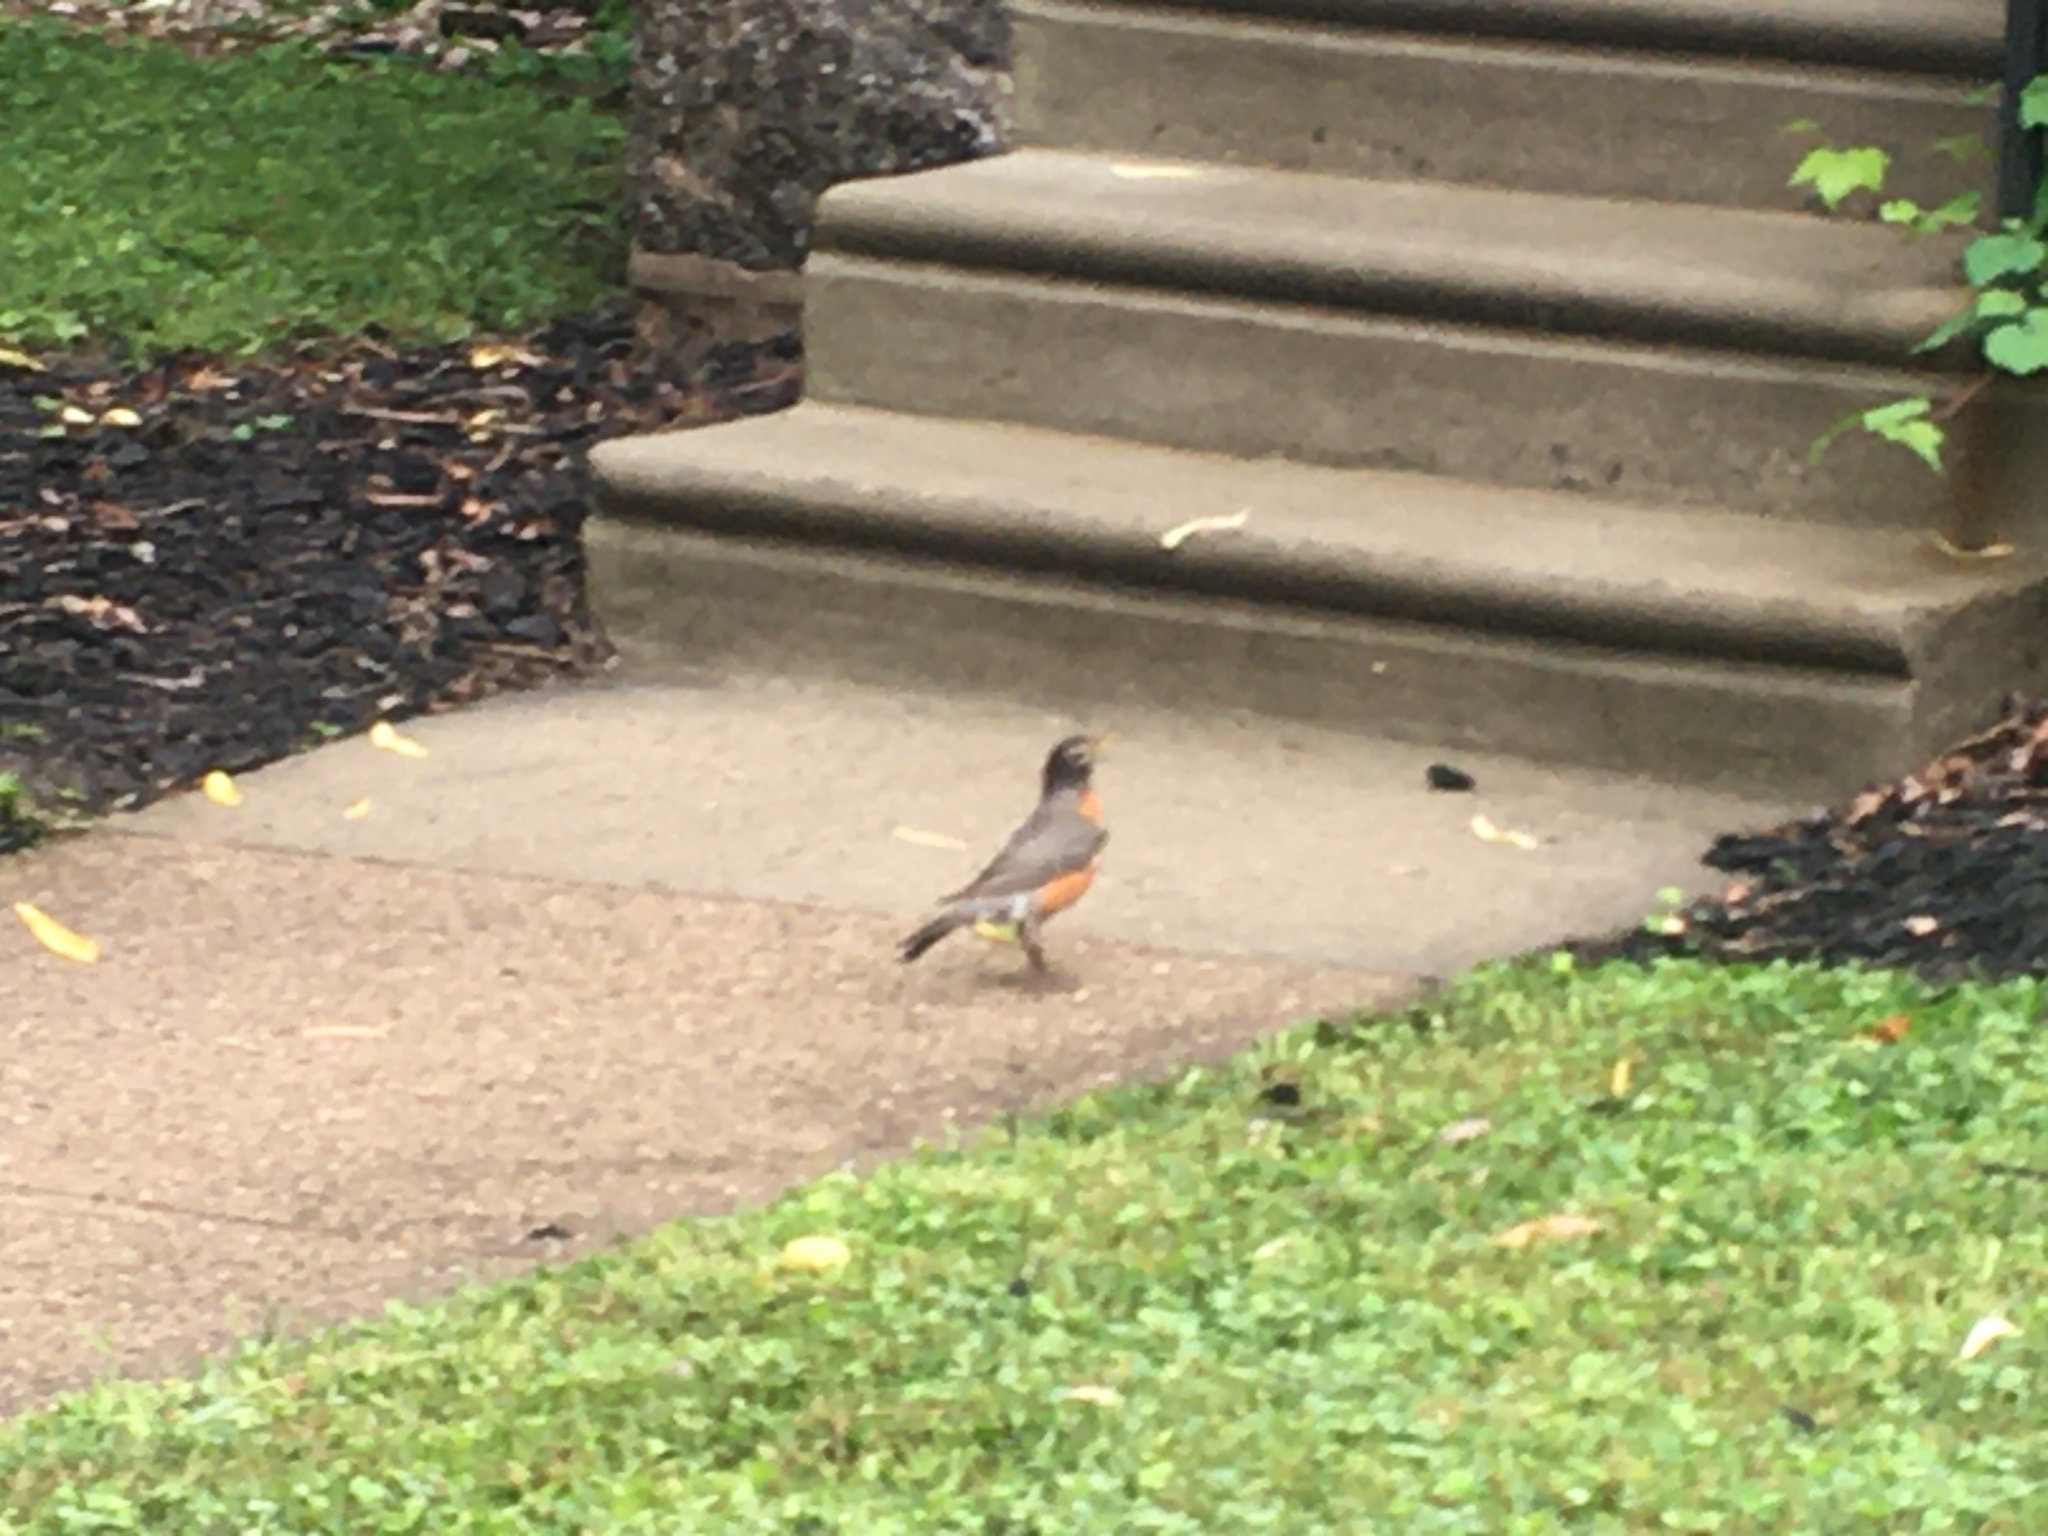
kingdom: Animalia
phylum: Chordata
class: Aves
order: Passeriformes
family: Turdidae
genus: Turdus
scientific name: Turdus migratorius
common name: American robin
